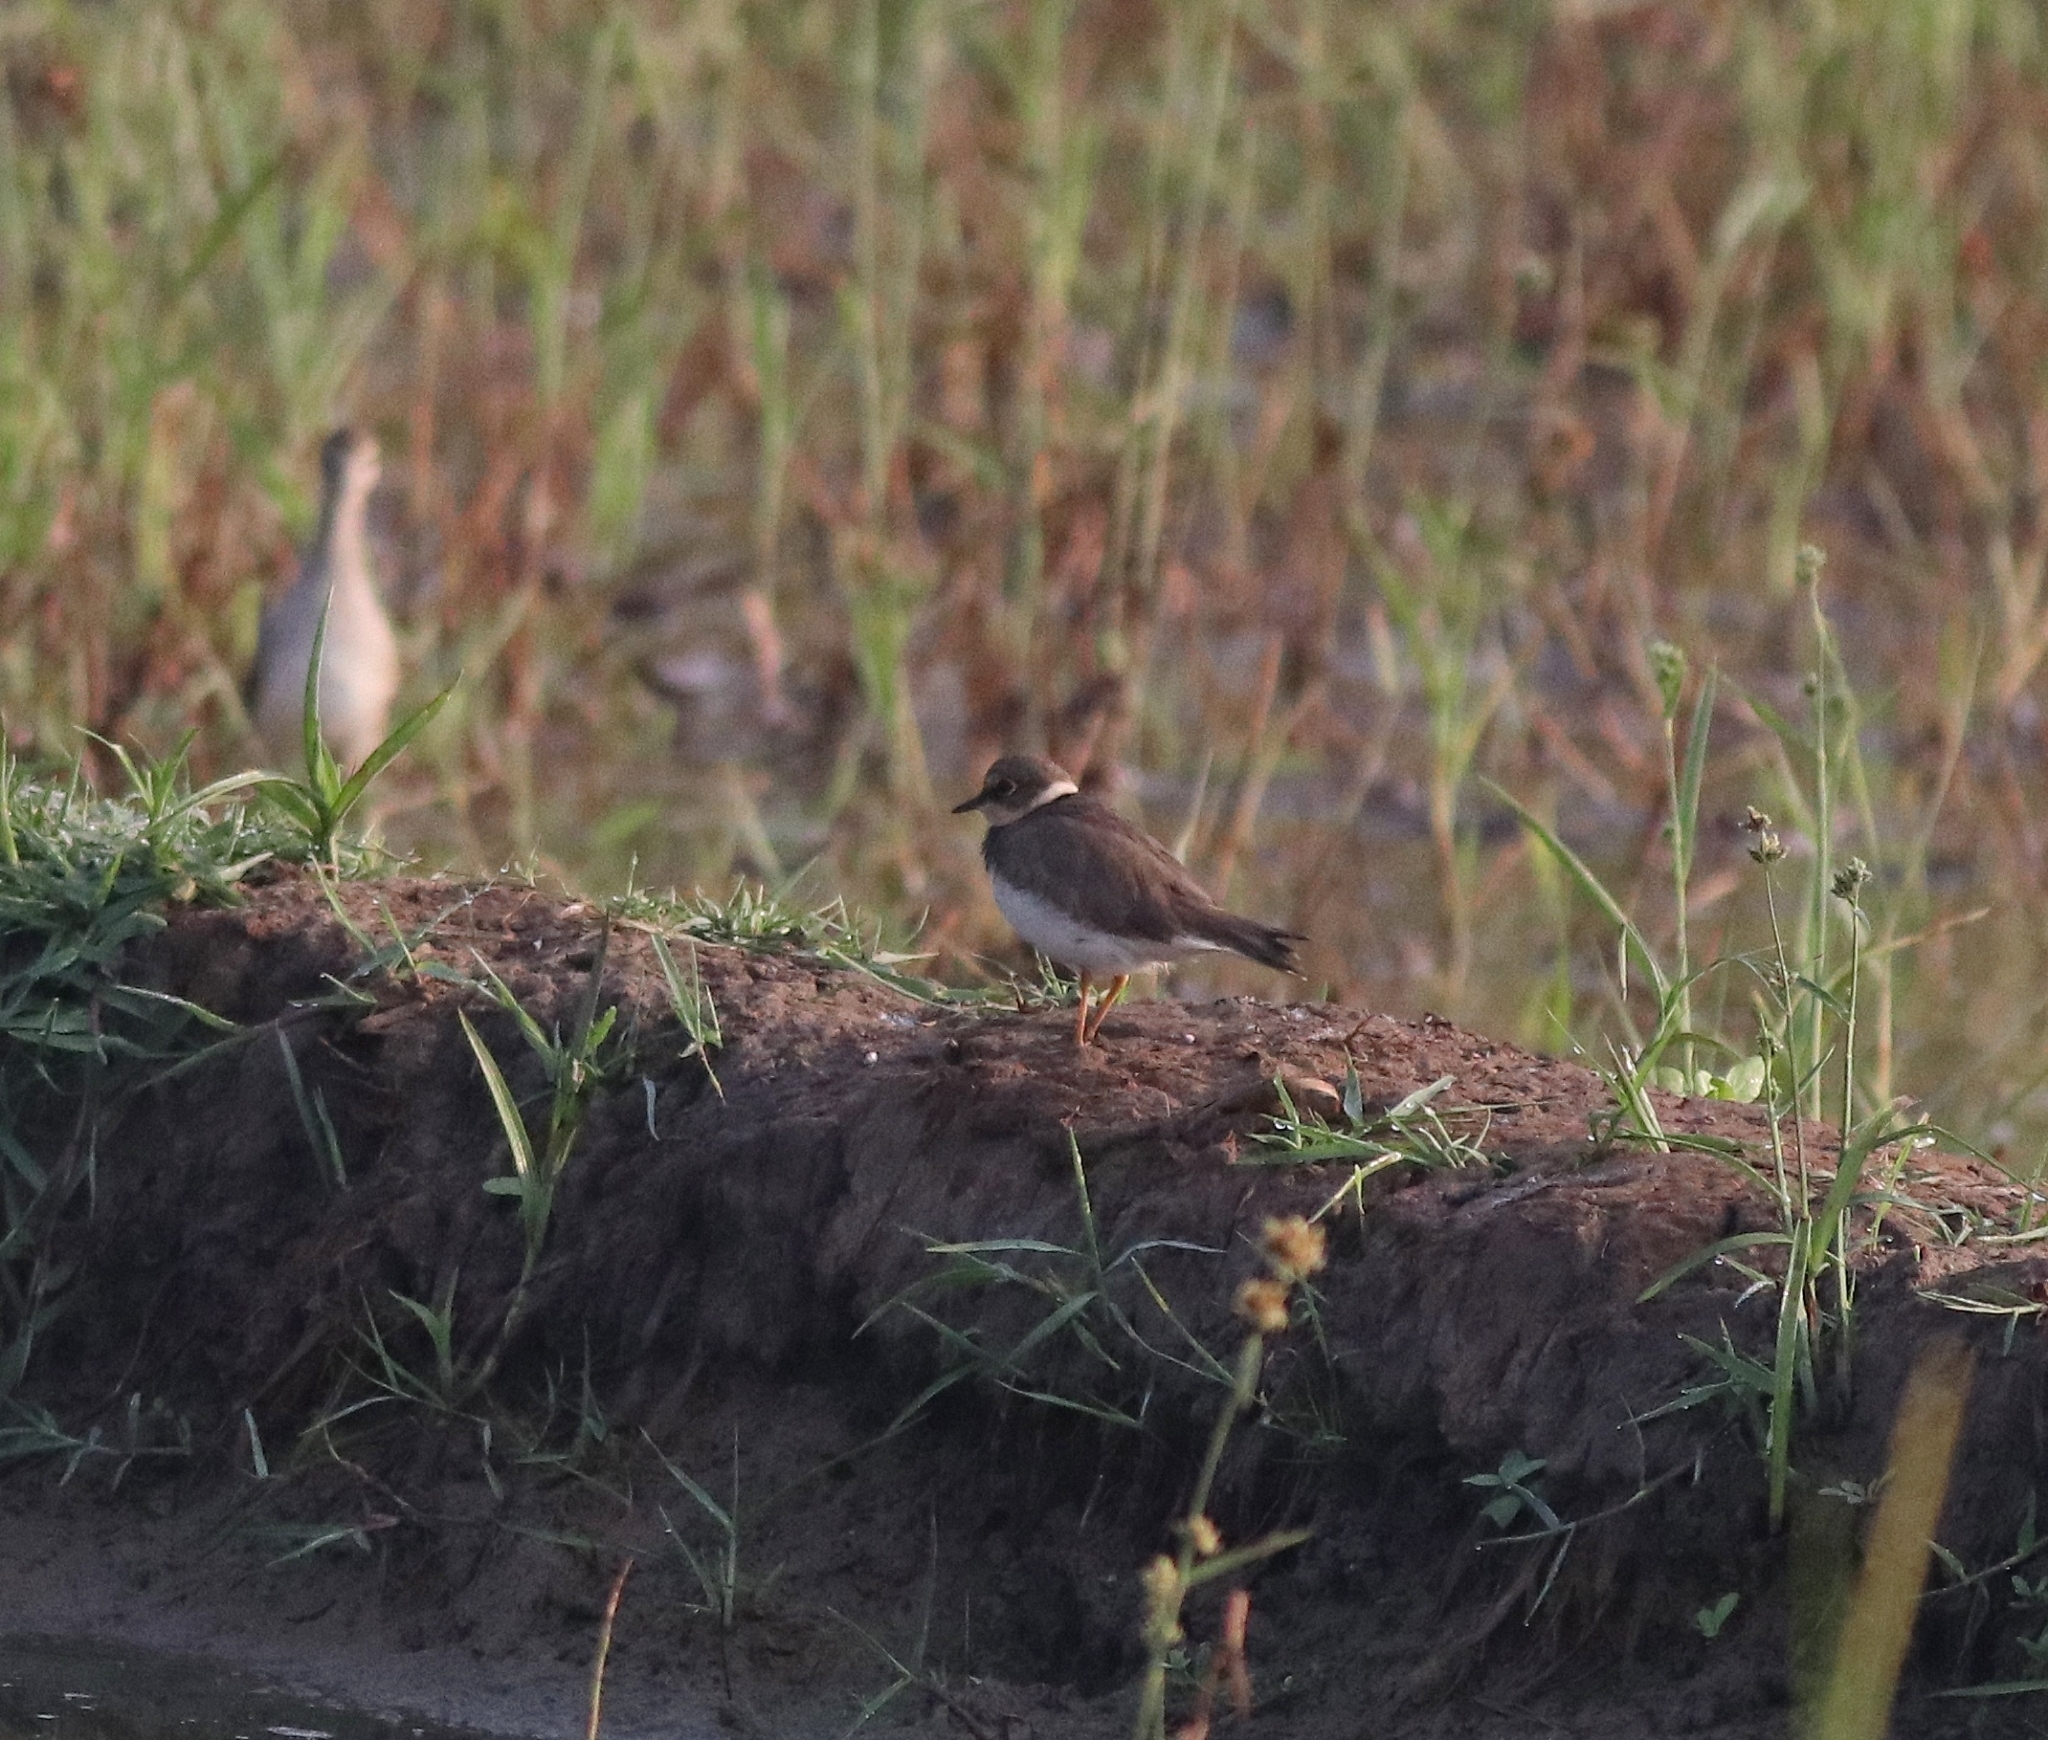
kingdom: Animalia
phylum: Chordata
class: Aves
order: Charadriiformes
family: Charadriidae
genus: Charadrius
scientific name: Charadrius dubius
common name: Little ringed plover
